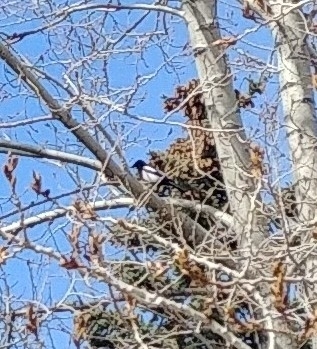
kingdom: Animalia
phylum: Chordata
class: Aves
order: Passeriformes
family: Corvidae
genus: Pica
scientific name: Pica hudsonia
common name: Black-billed magpie
